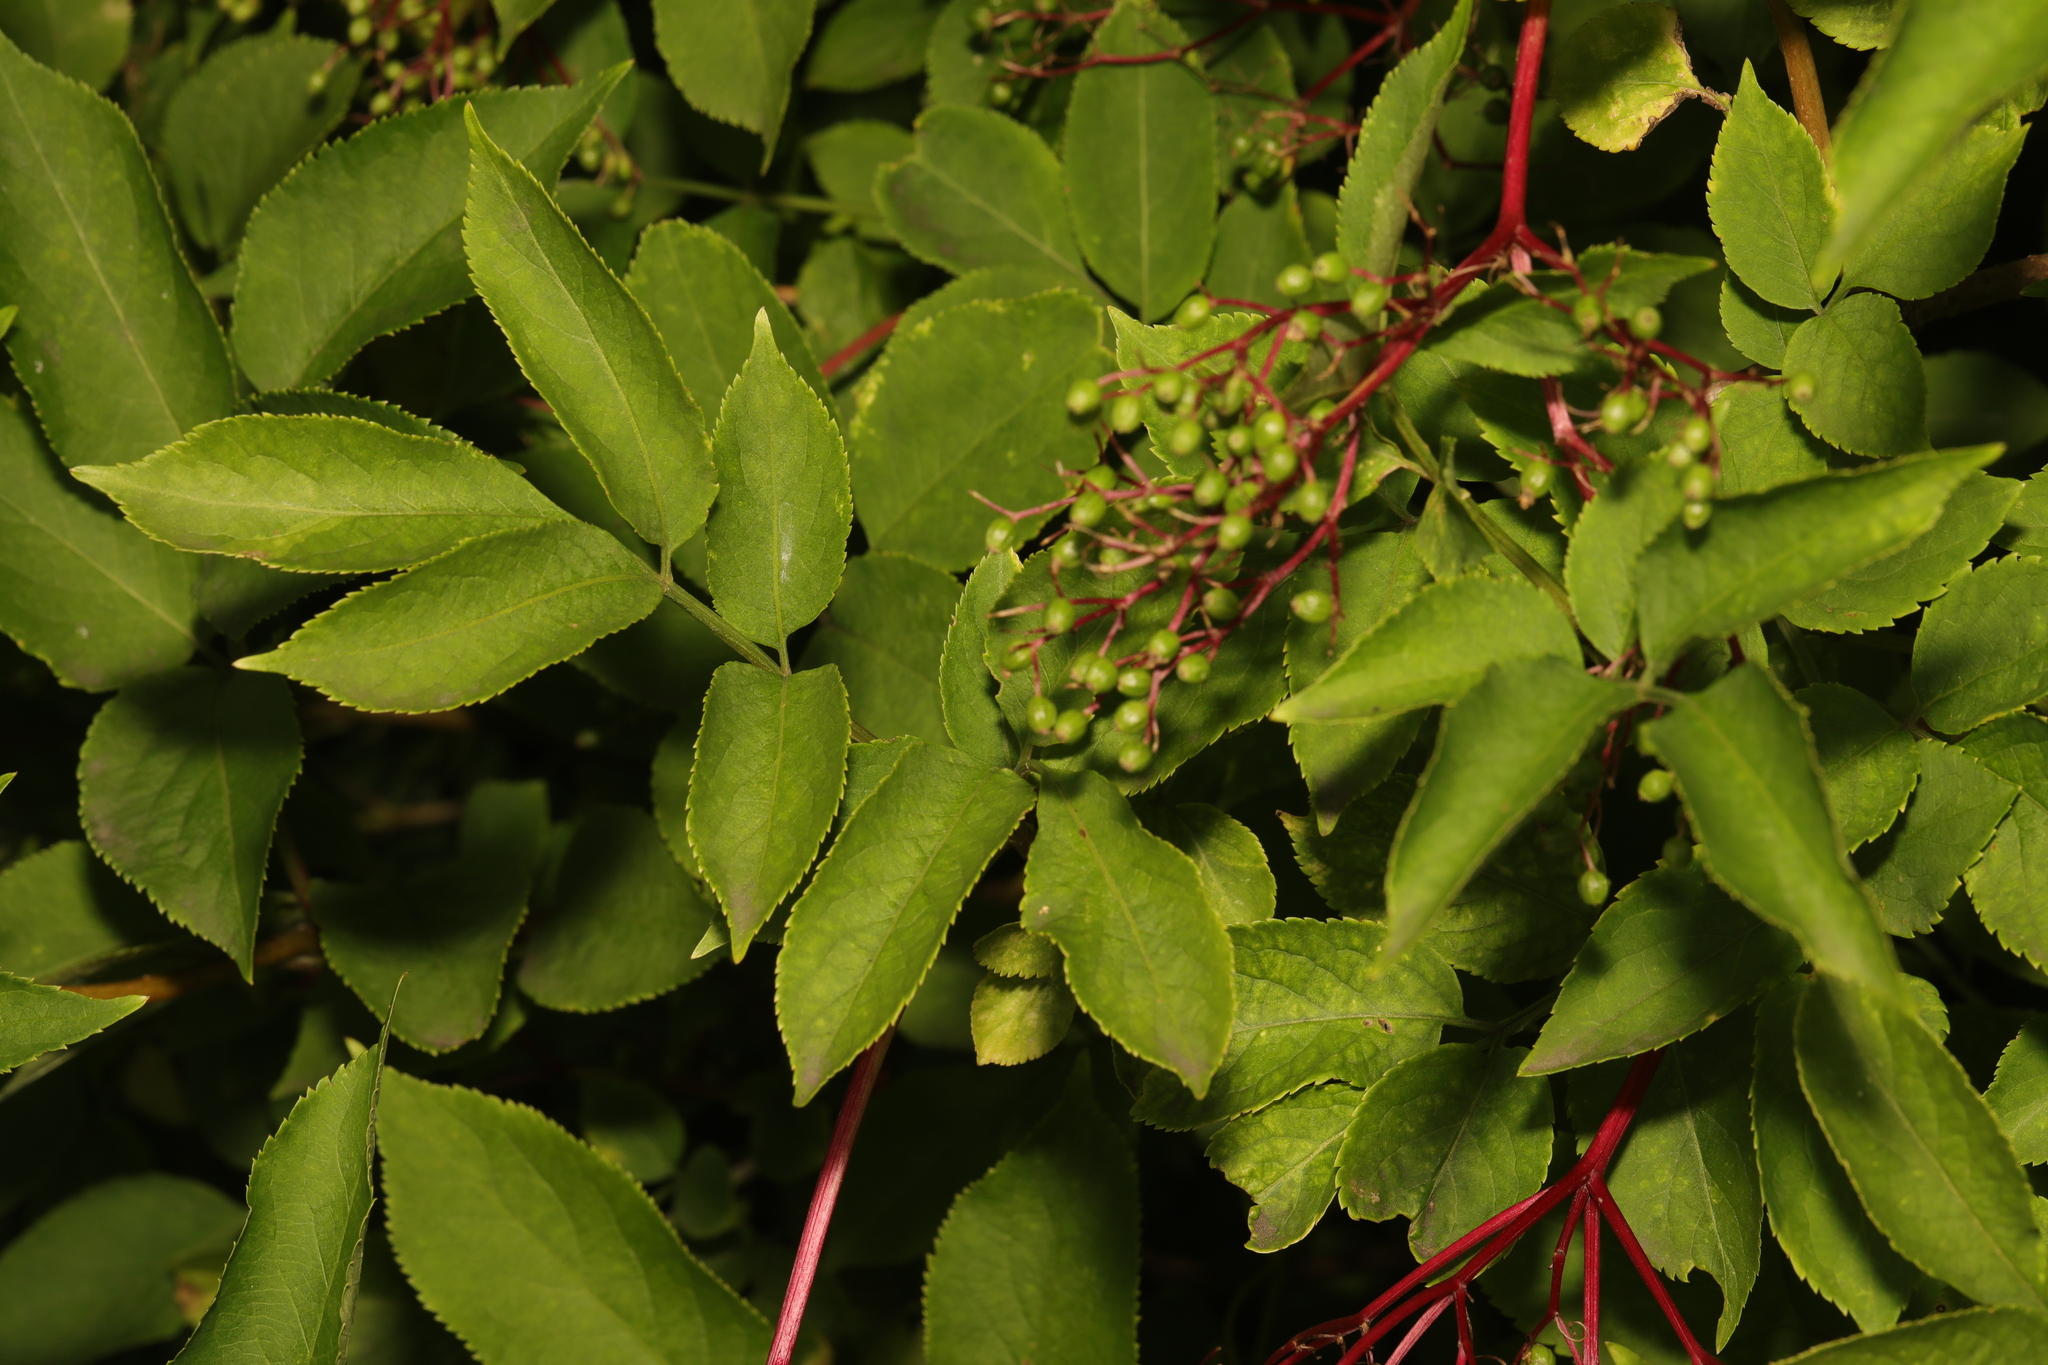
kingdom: Plantae
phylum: Tracheophyta
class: Magnoliopsida
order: Dipsacales
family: Viburnaceae
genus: Sambucus
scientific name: Sambucus nigra
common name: Elder
